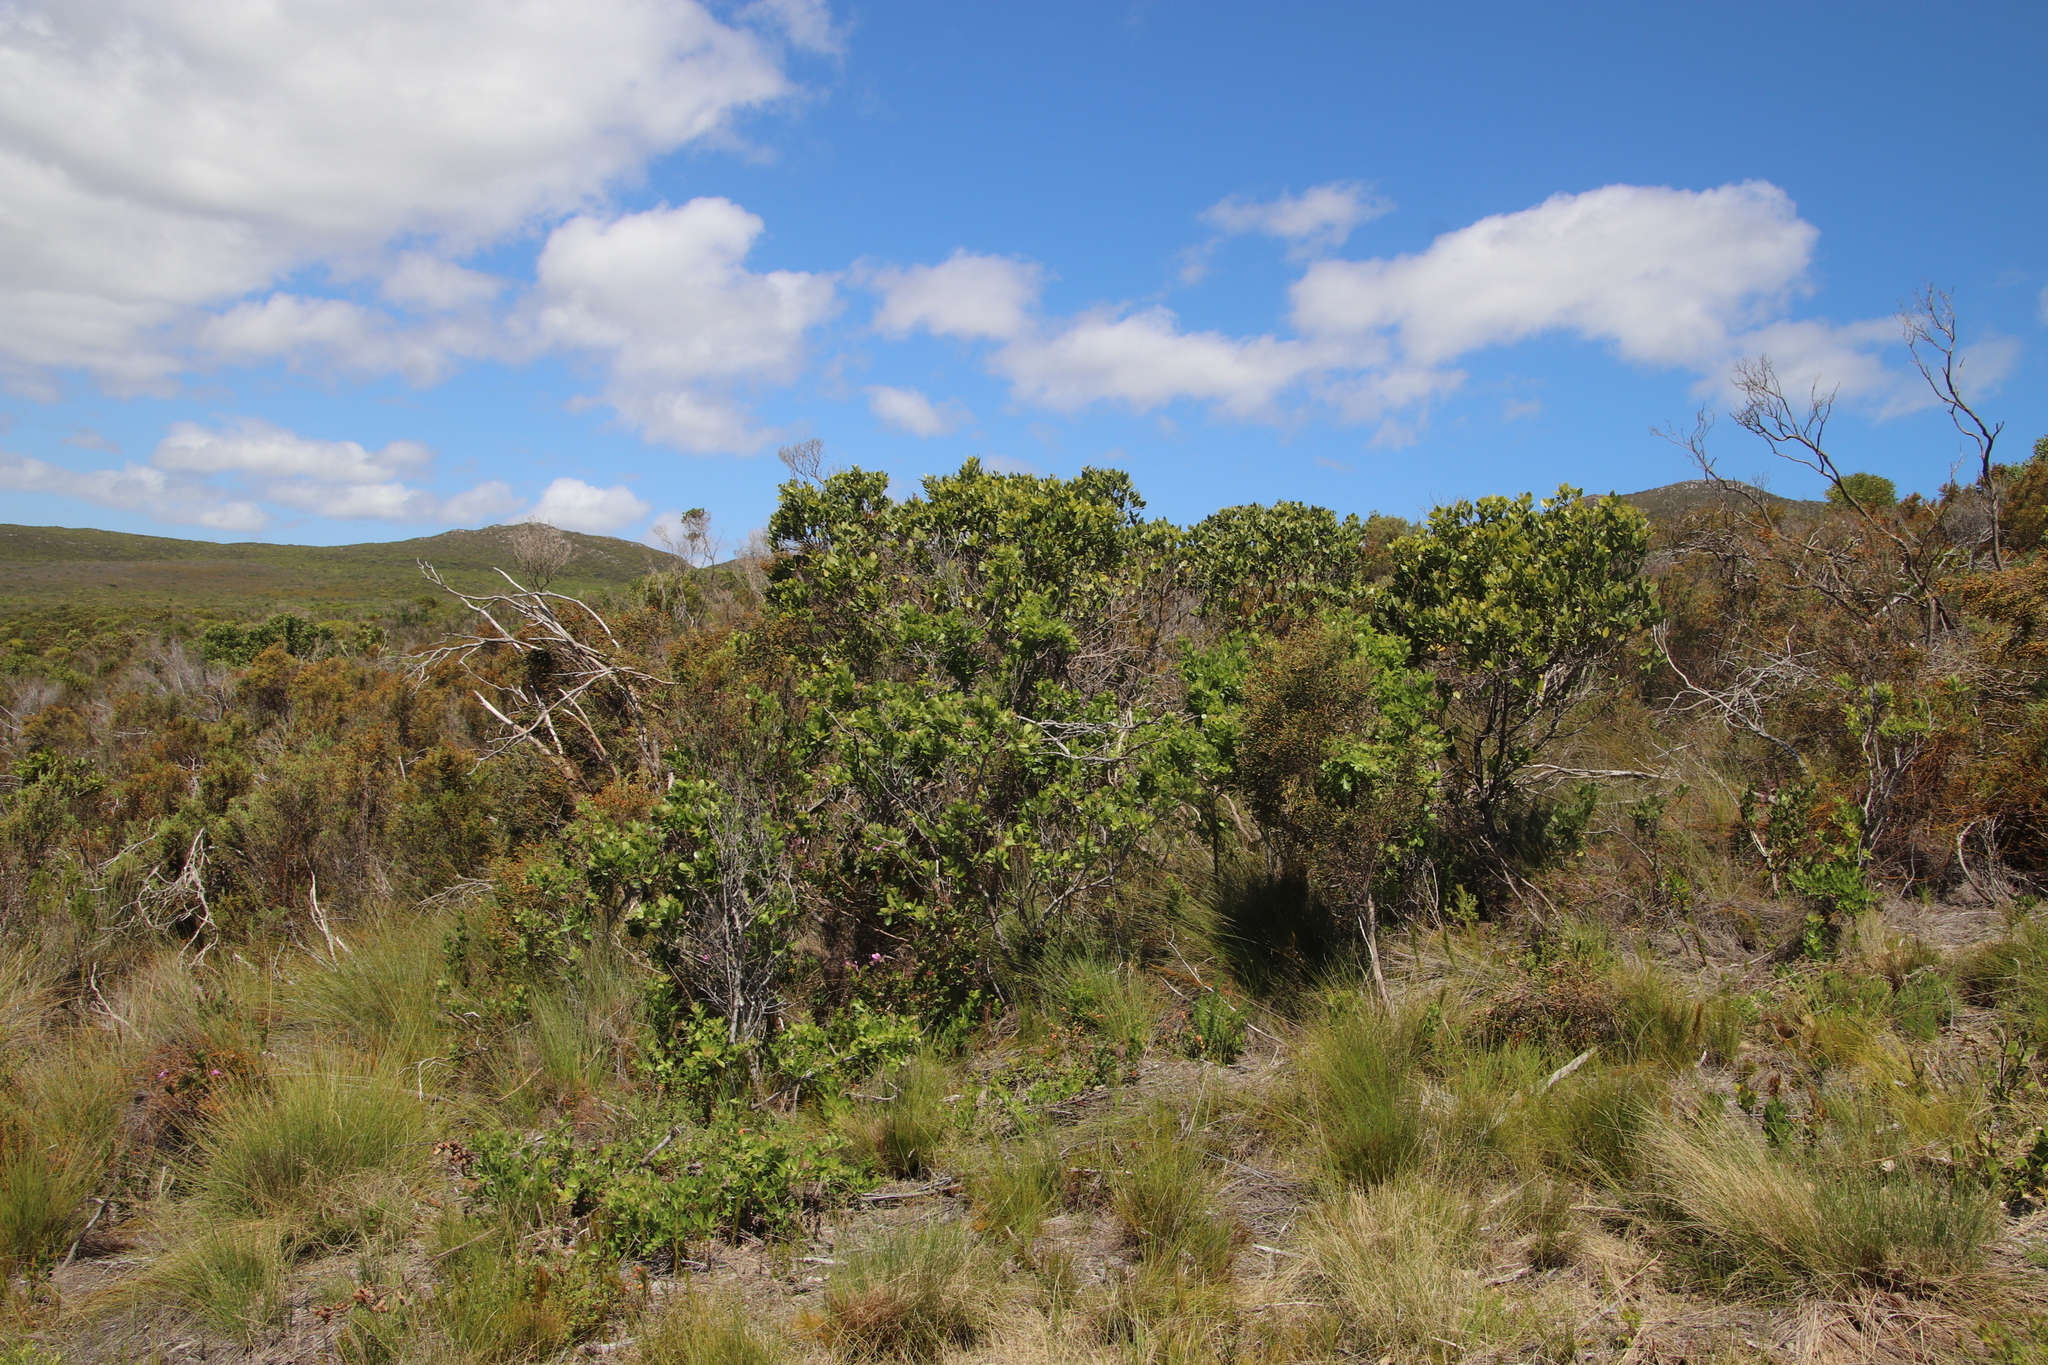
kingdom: Plantae
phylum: Tracheophyta
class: Magnoliopsida
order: Lamiales
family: Oleaceae
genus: Olea
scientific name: Olea capensis
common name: Black ironwood
